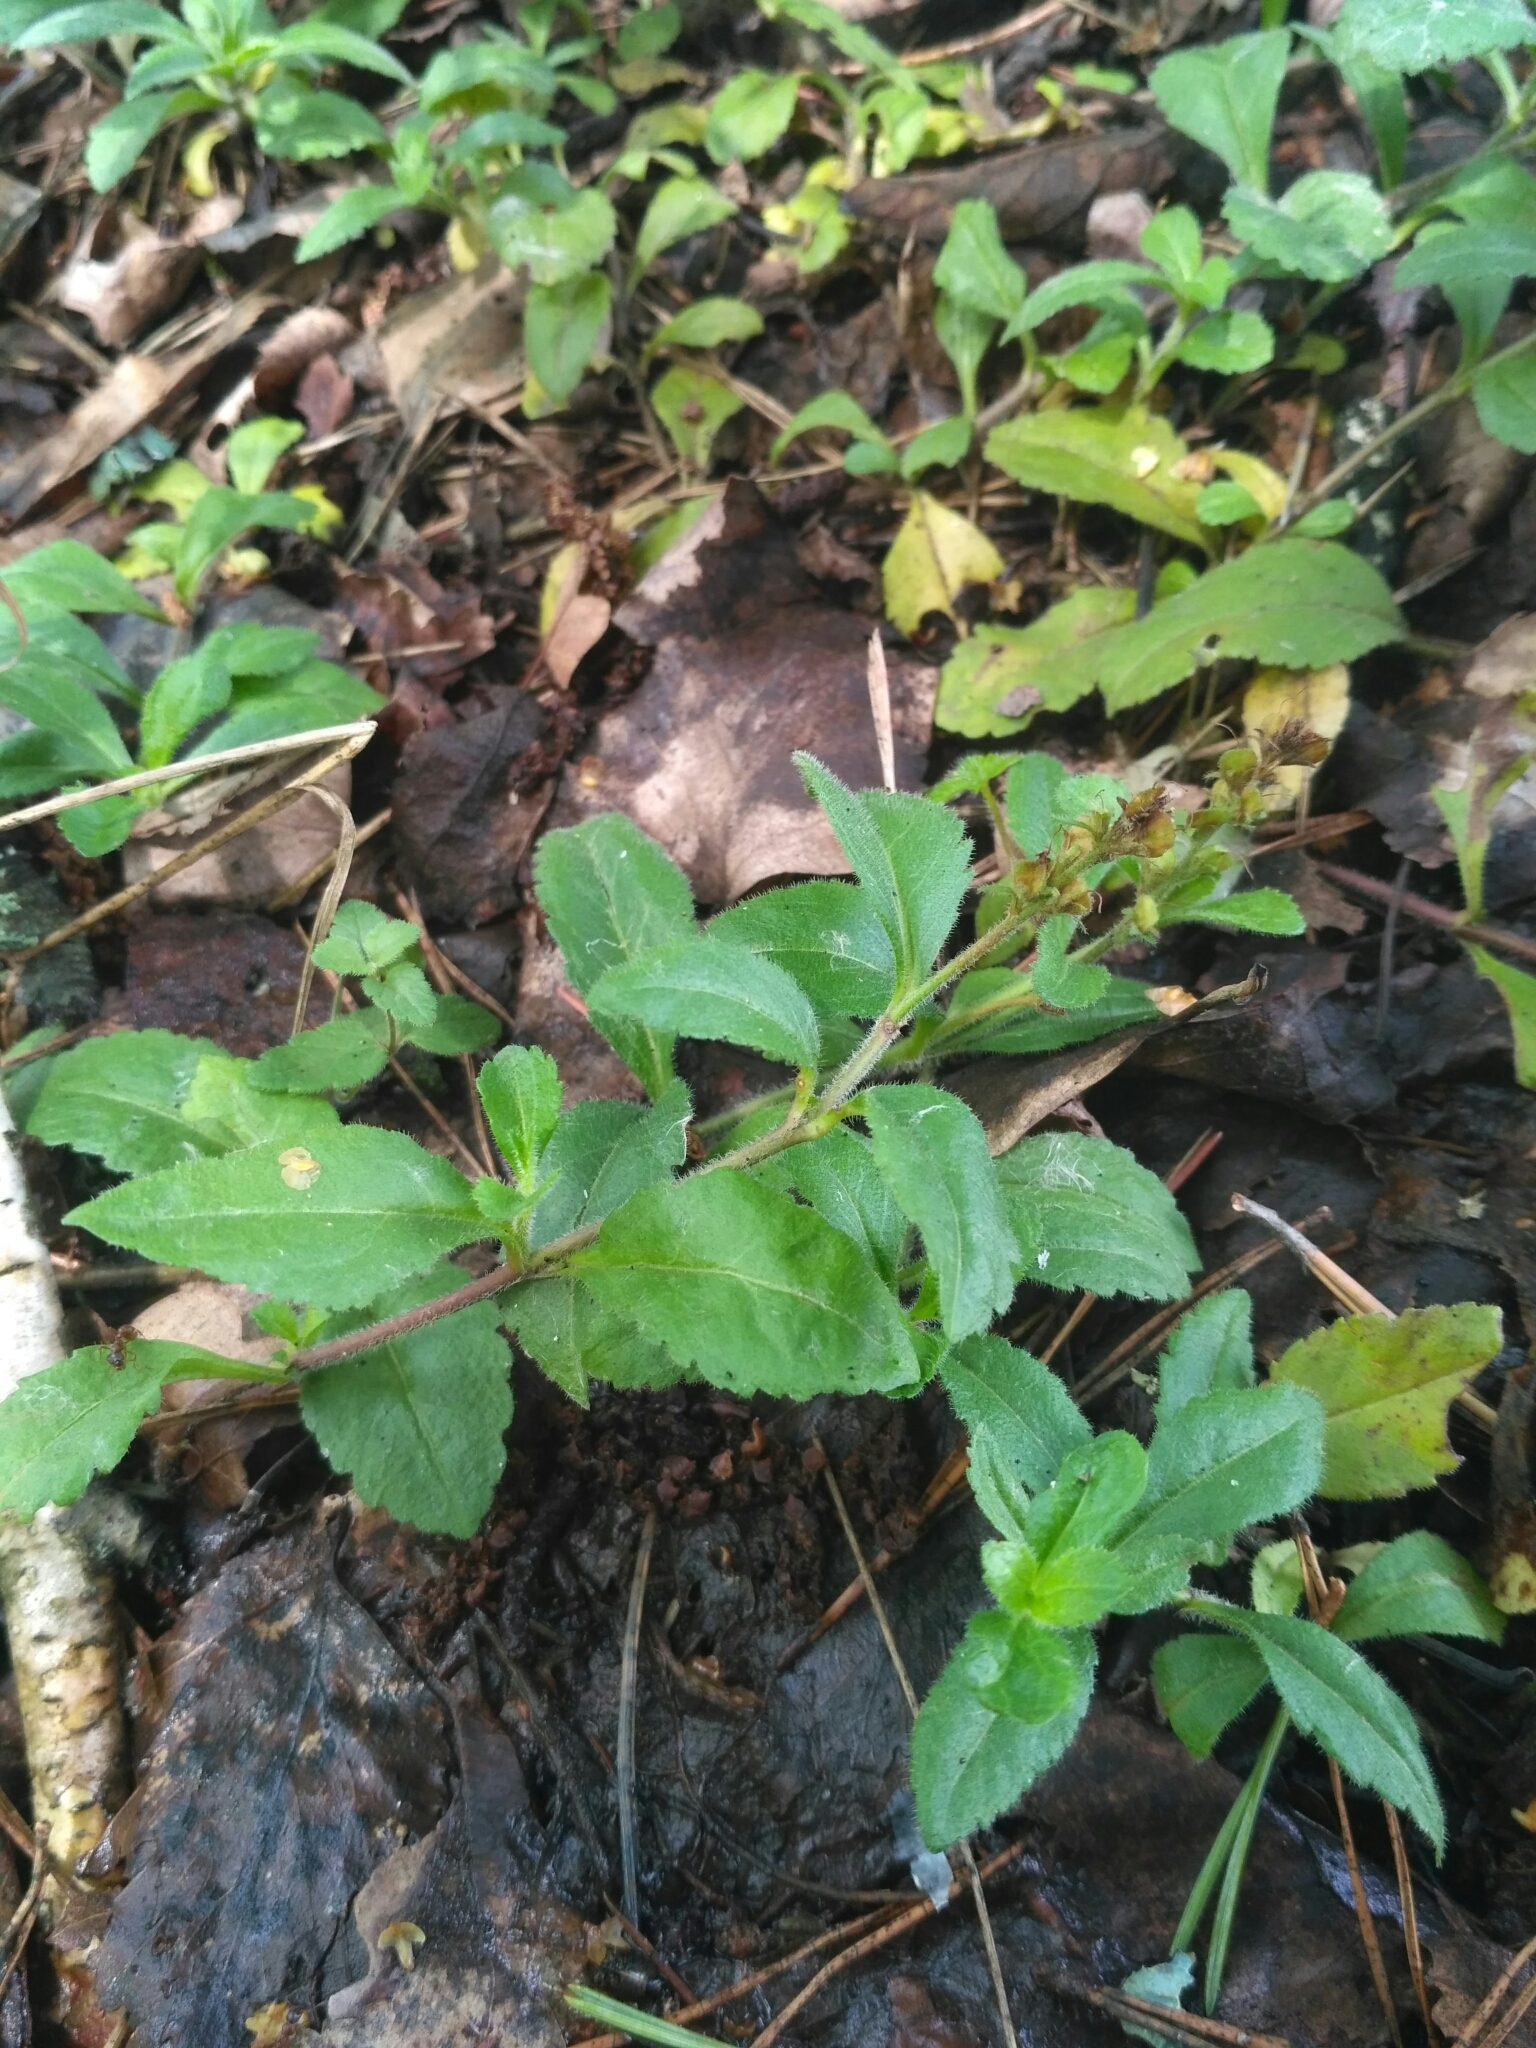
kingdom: Plantae
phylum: Tracheophyta
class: Magnoliopsida
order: Lamiales
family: Plantaginaceae
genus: Veronica
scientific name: Veronica officinalis
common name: Common speedwell
